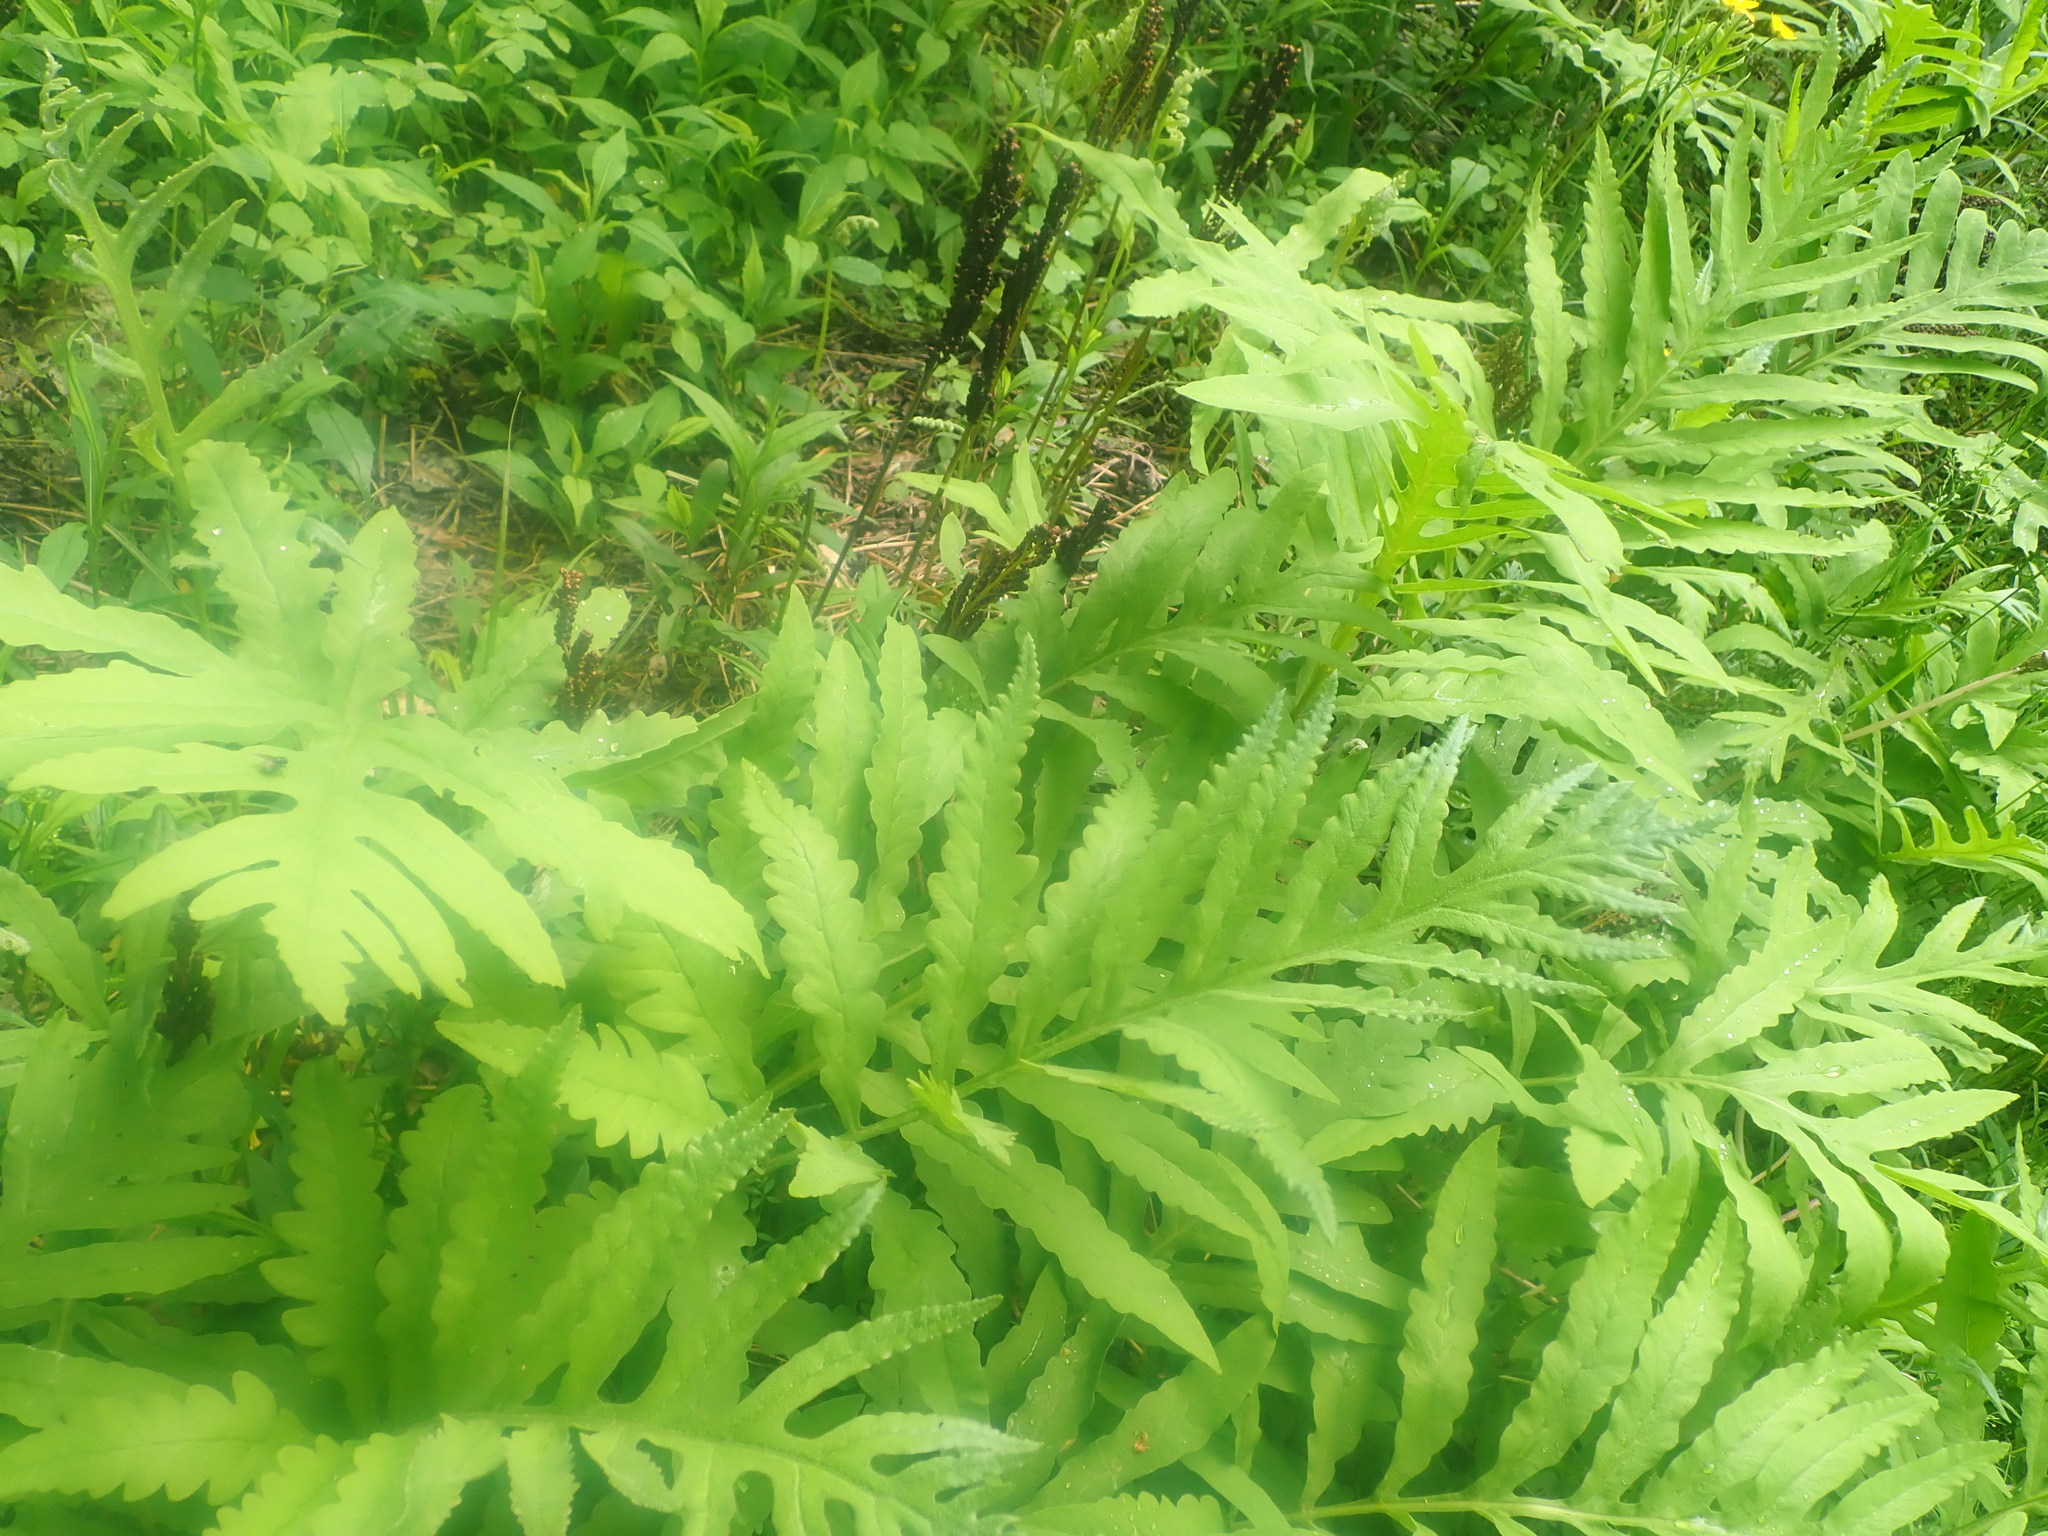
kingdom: Plantae
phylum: Tracheophyta
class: Polypodiopsida
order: Polypodiales
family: Onocleaceae
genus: Onoclea
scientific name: Onoclea sensibilis
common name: Sensitive fern
